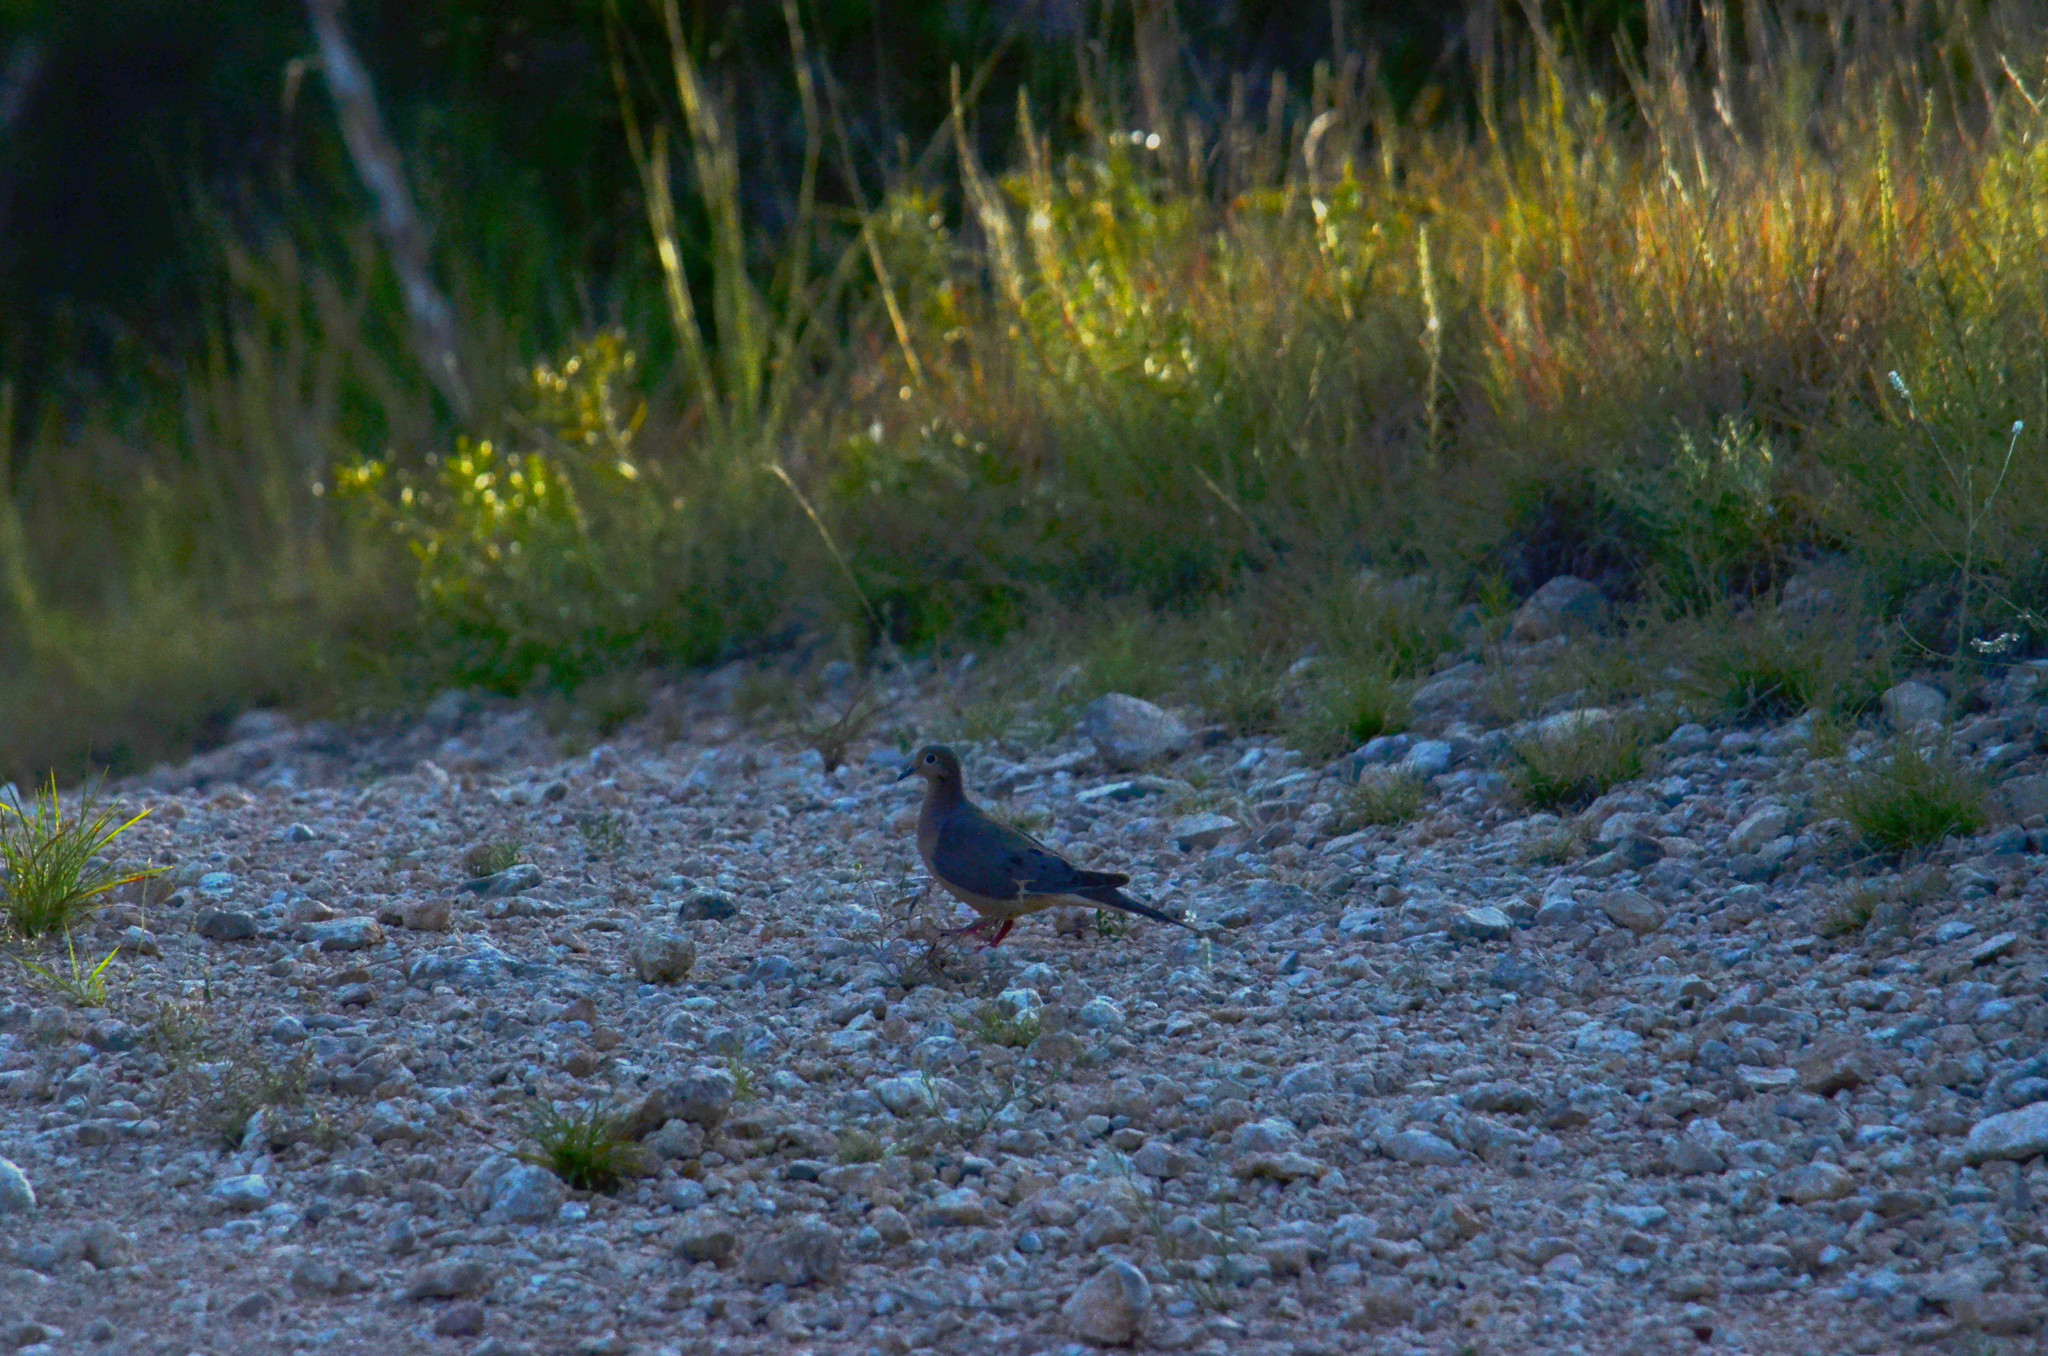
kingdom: Animalia
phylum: Chordata
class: Aves
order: Columbiformes
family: Columbidae
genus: Zenaida
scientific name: Zenaida macroura
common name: Mourning dove
